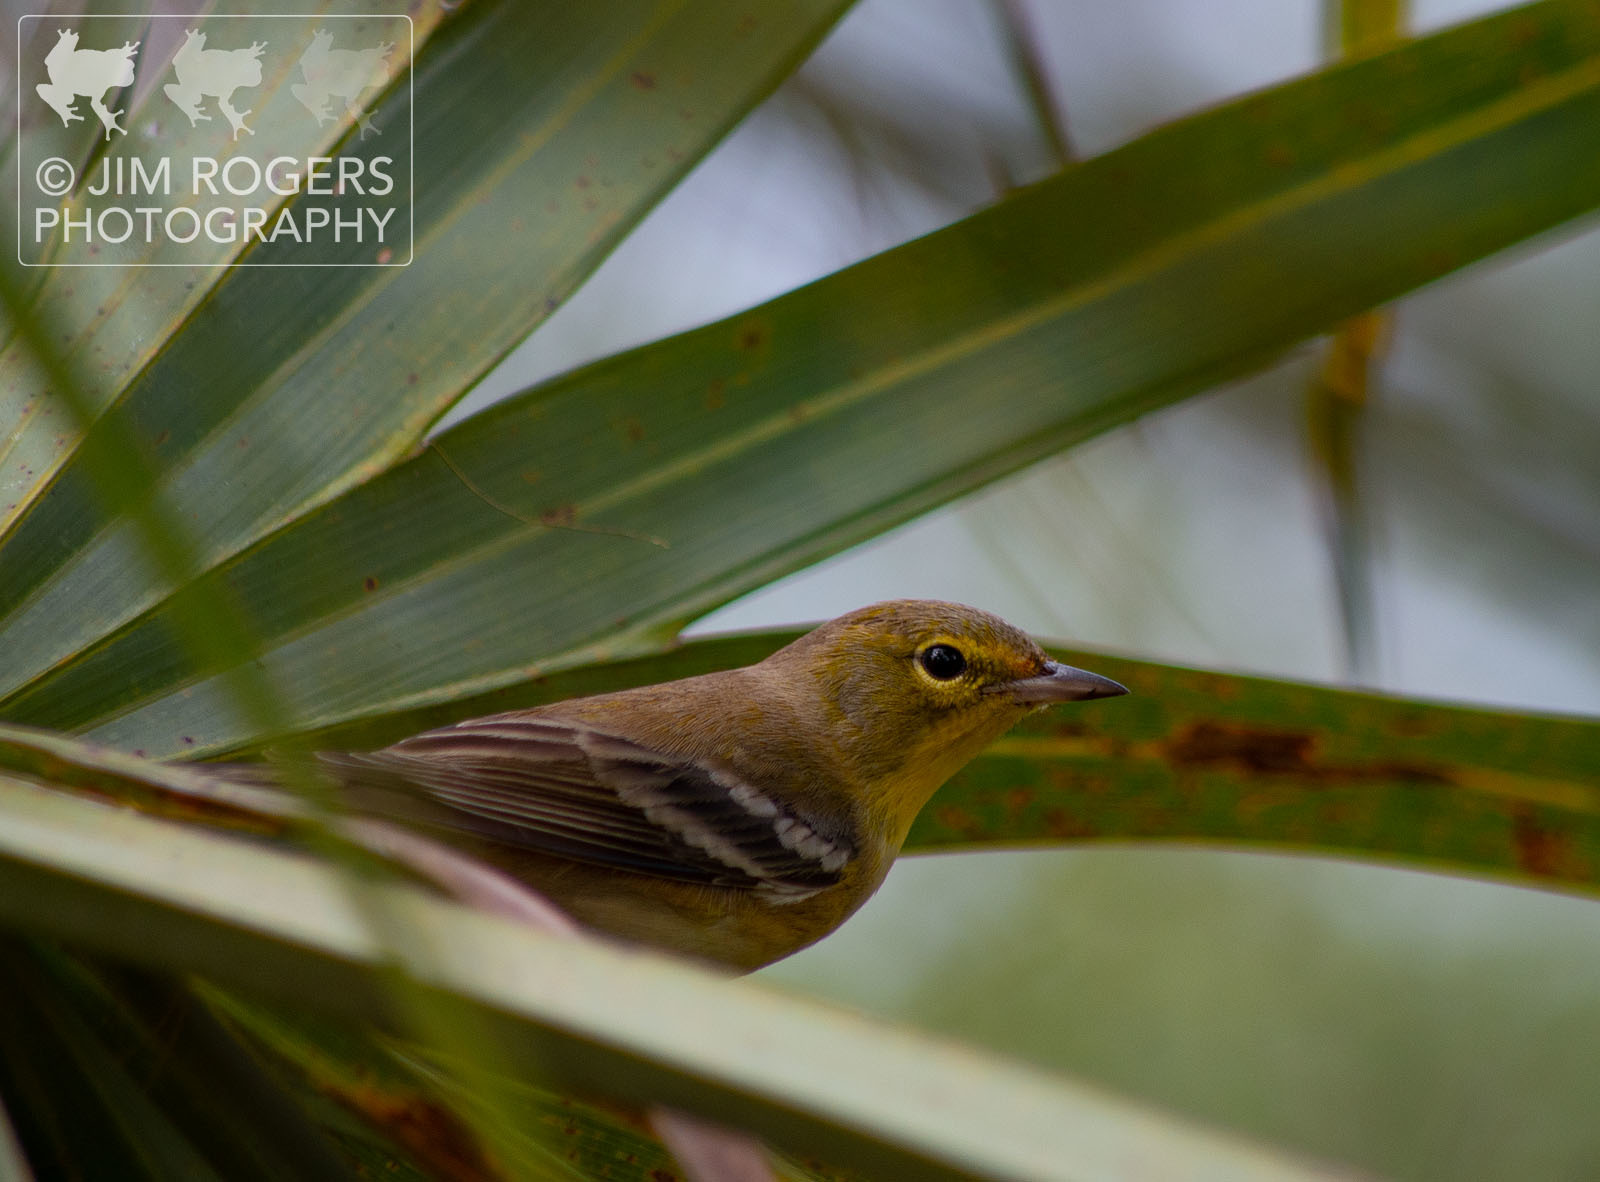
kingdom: Animalia
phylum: Chordata
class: Aves
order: Passeriformes
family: Parulidae
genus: Setophaga
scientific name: Setophaga pinus
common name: Pine warbler
